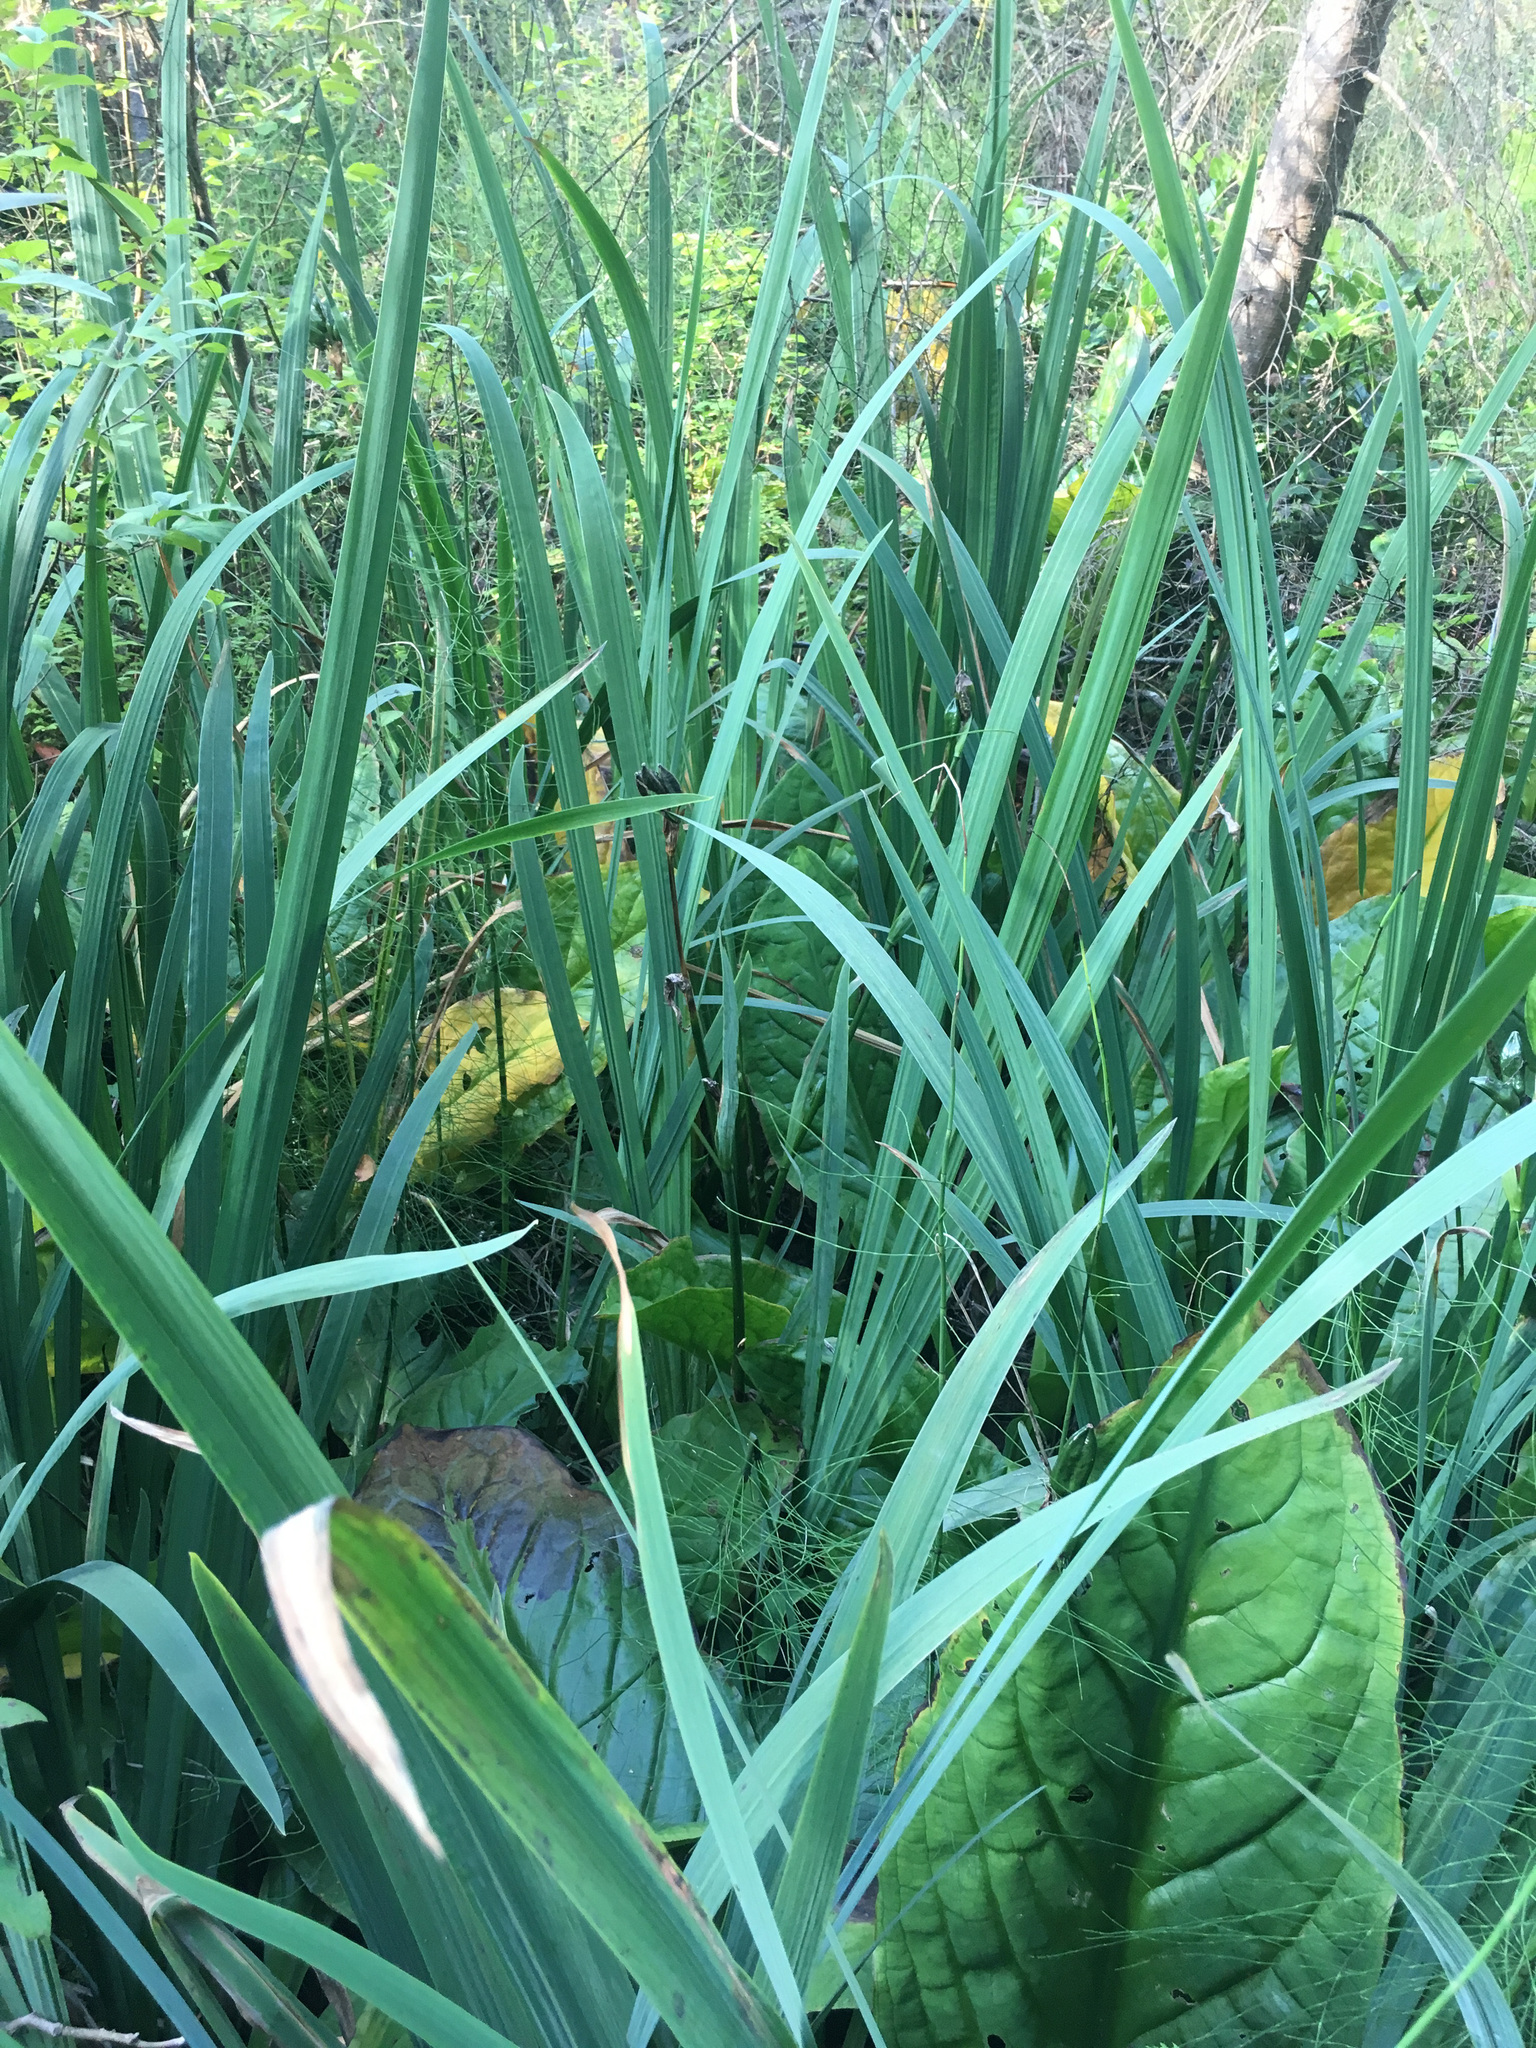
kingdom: Plantae
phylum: Tracheophyta
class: Liliopsida
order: Asparagales
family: Iridaceae
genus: Iris
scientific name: Iris pseudacorus
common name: Yellow flag
